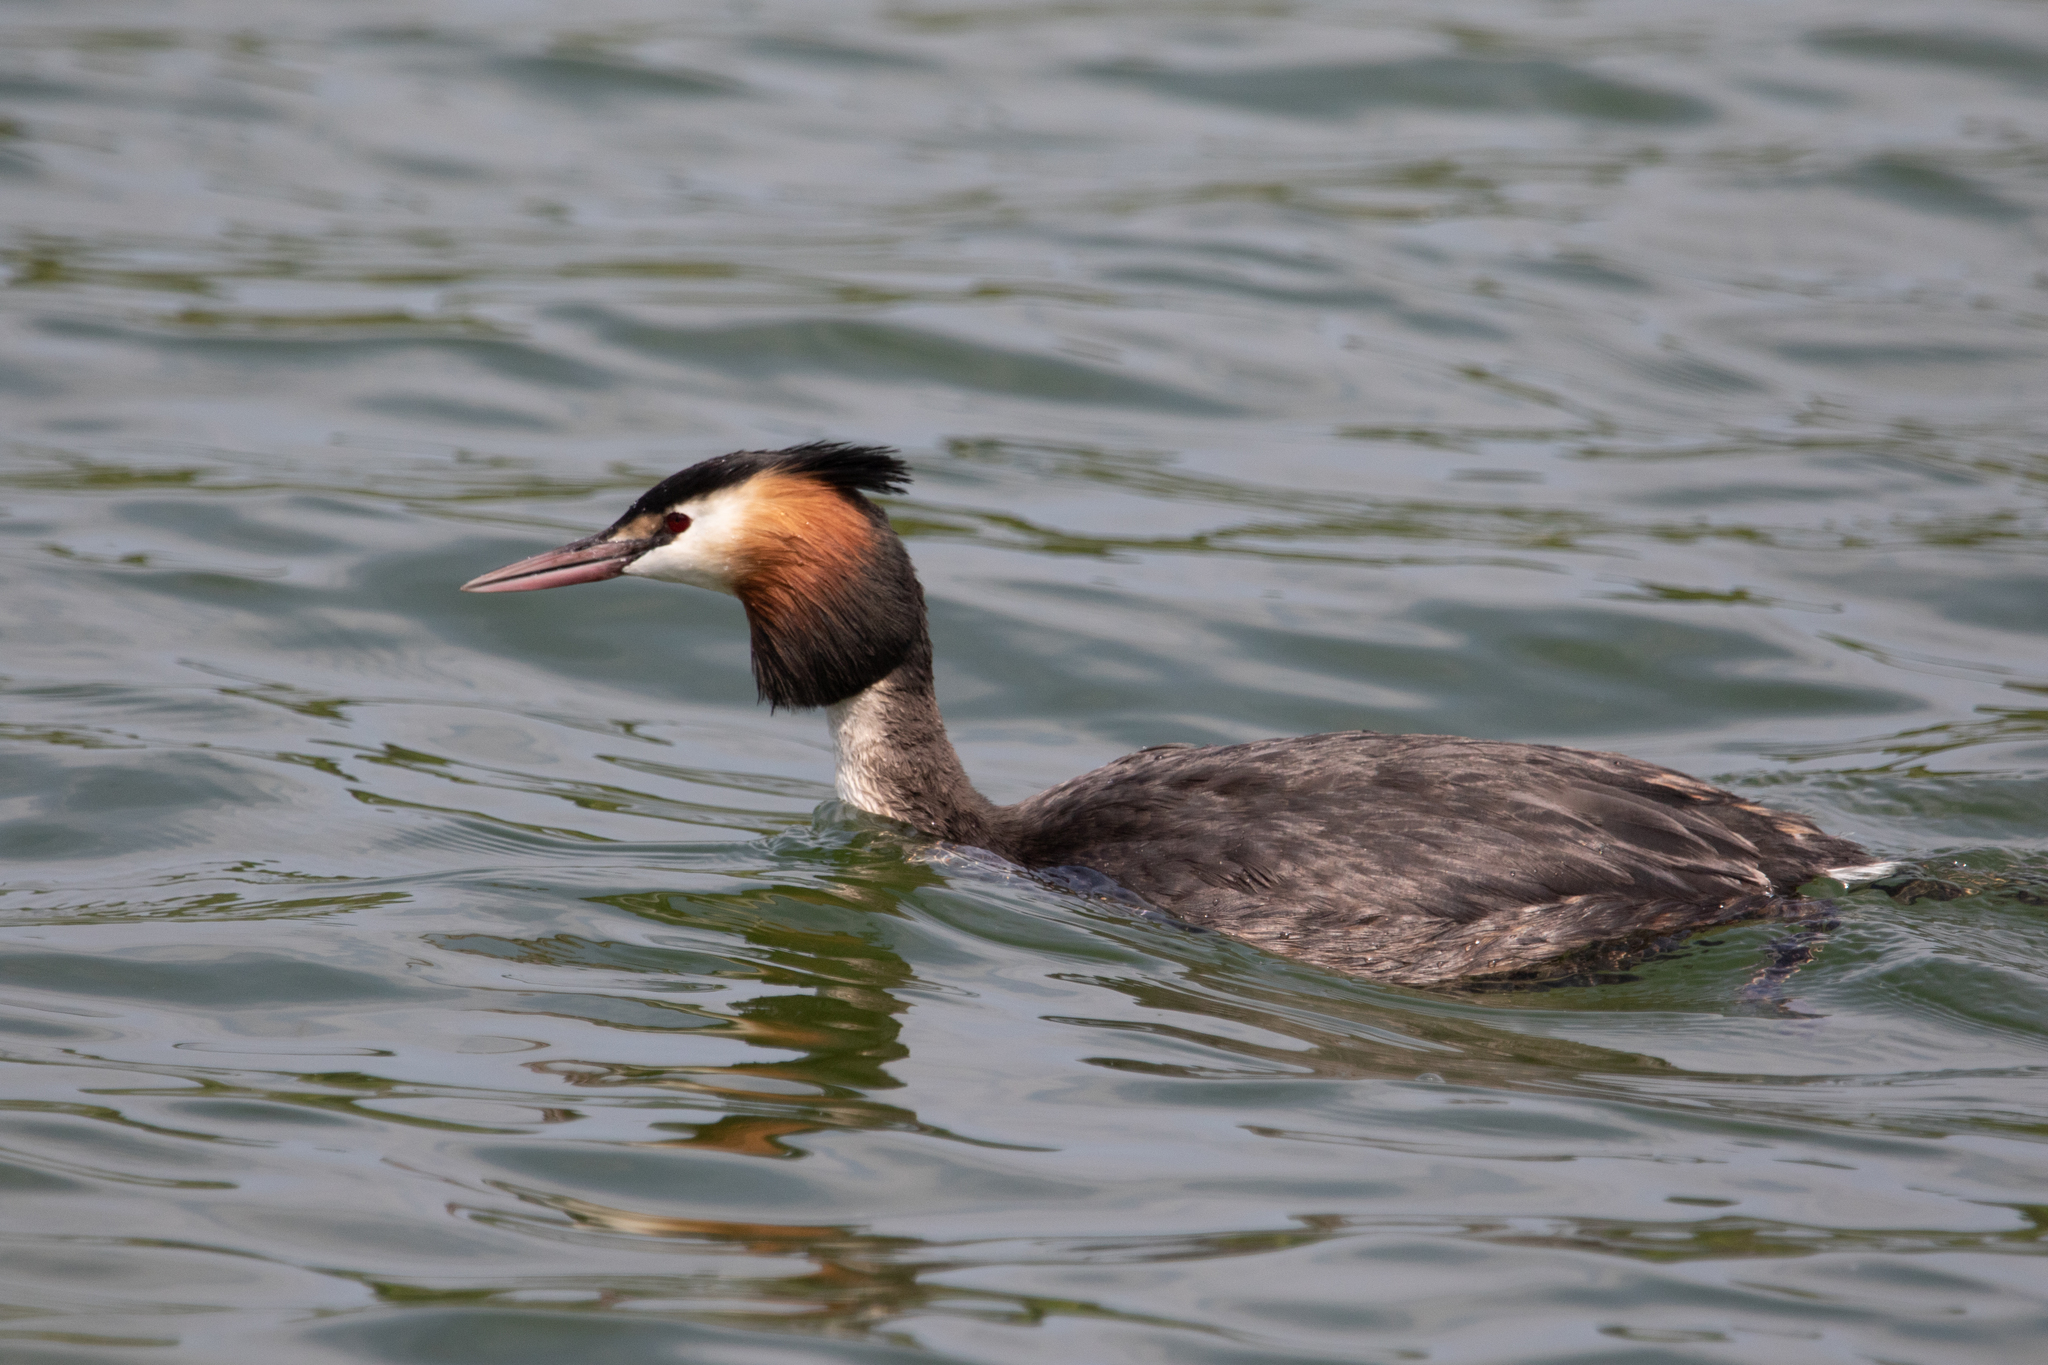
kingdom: Animalia
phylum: Chordata
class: Aves
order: Podicipediformes
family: Podicipedidae
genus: Podiceps
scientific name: Podiceps cristatus
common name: Great crested grebe
